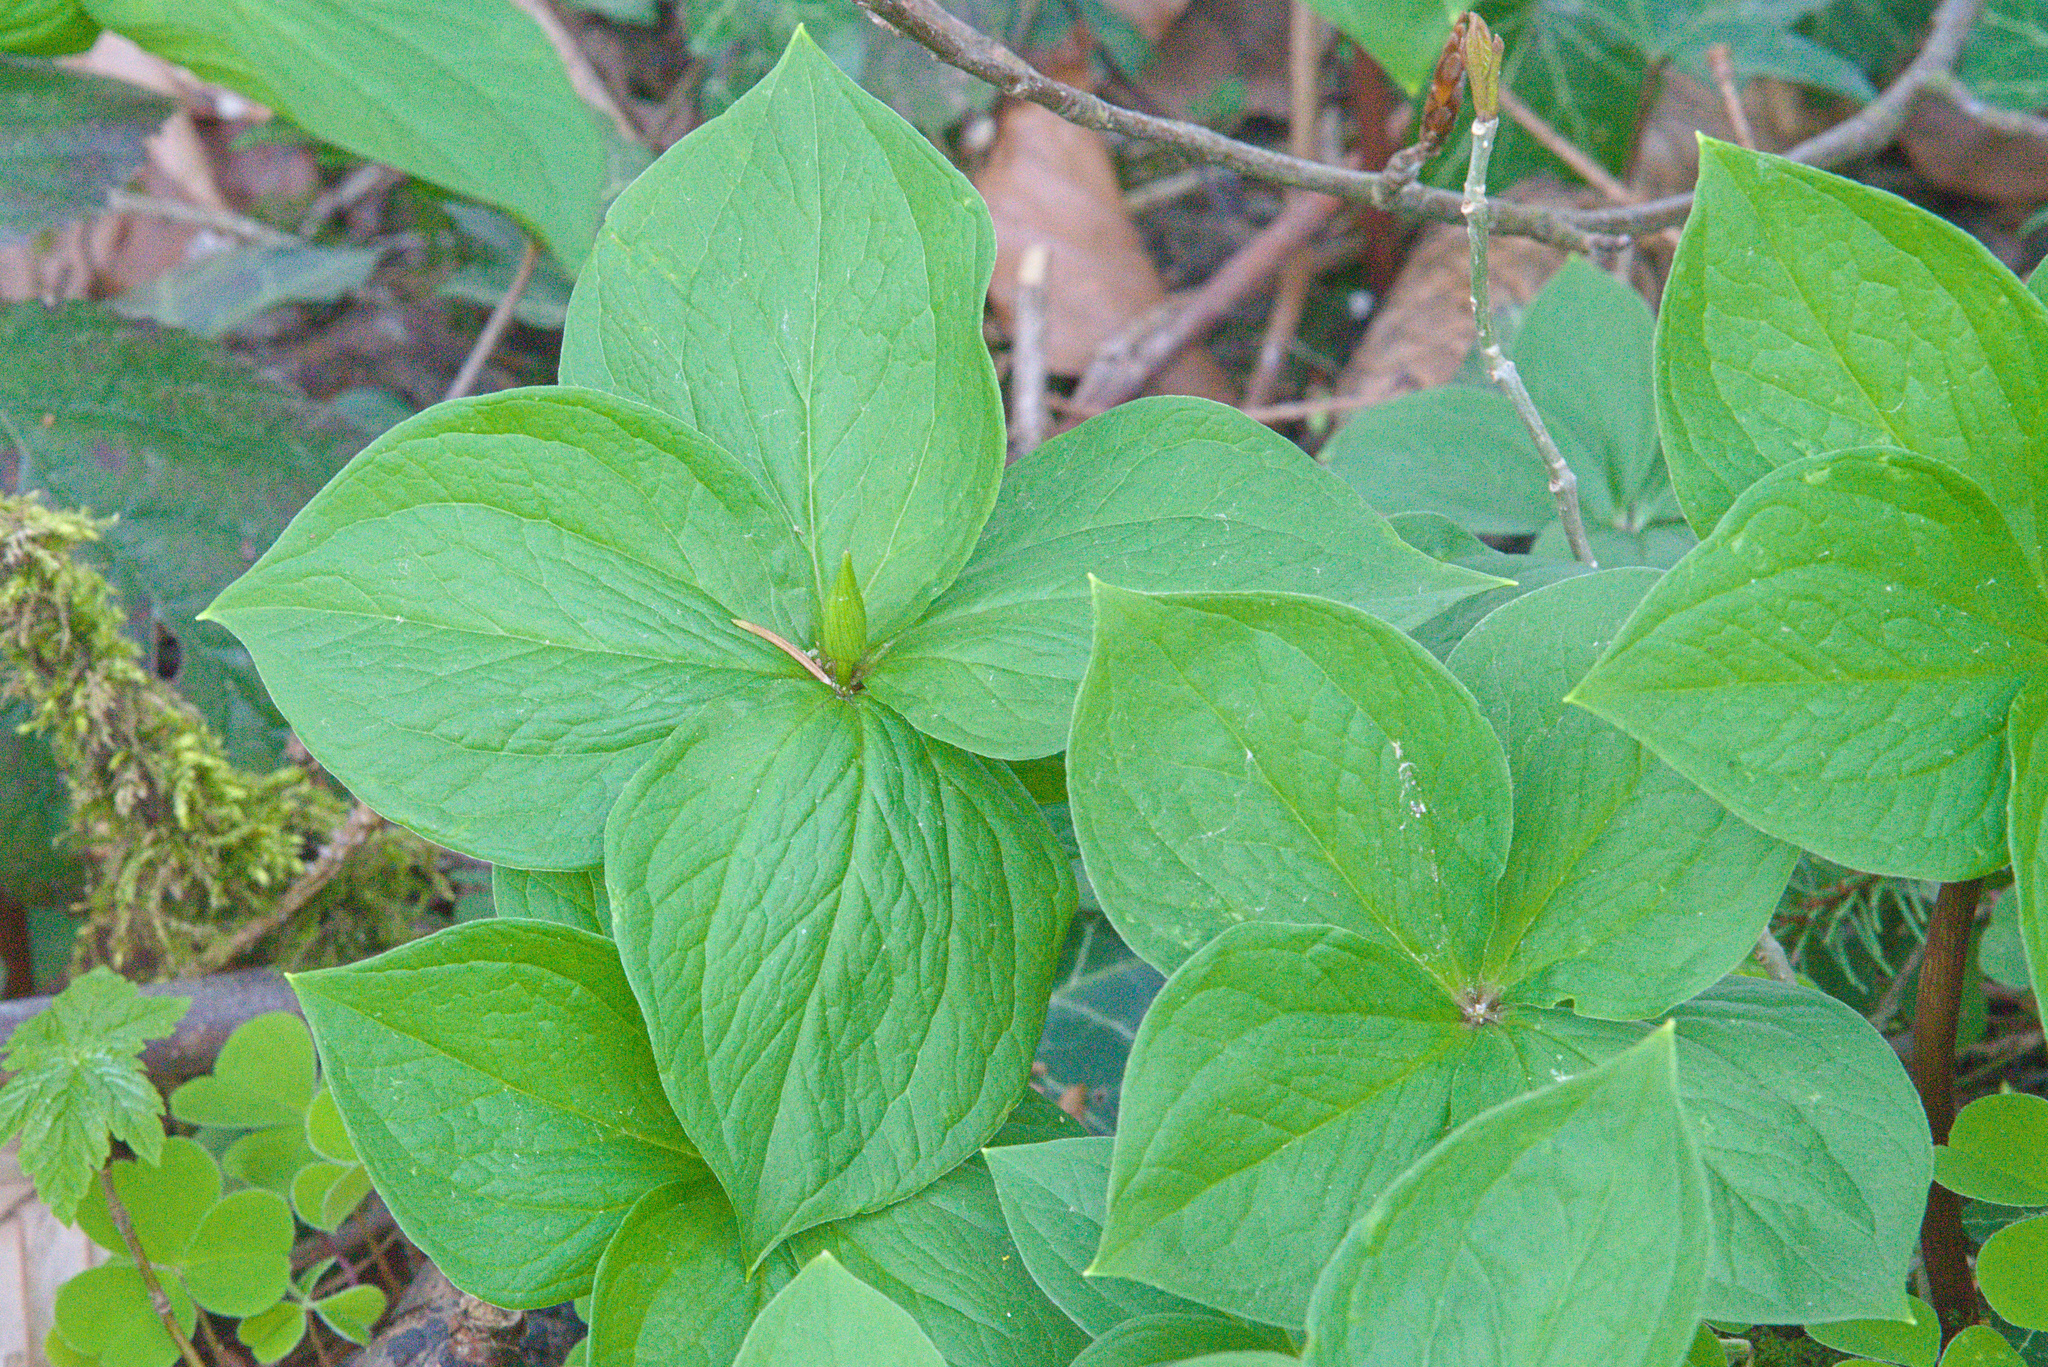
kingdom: Plantae
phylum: Tracheophyta
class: Liliopsida
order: Liliales
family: Melanthiaceae
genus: Paris
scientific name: Paris quadrifolia
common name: Herb-paris
